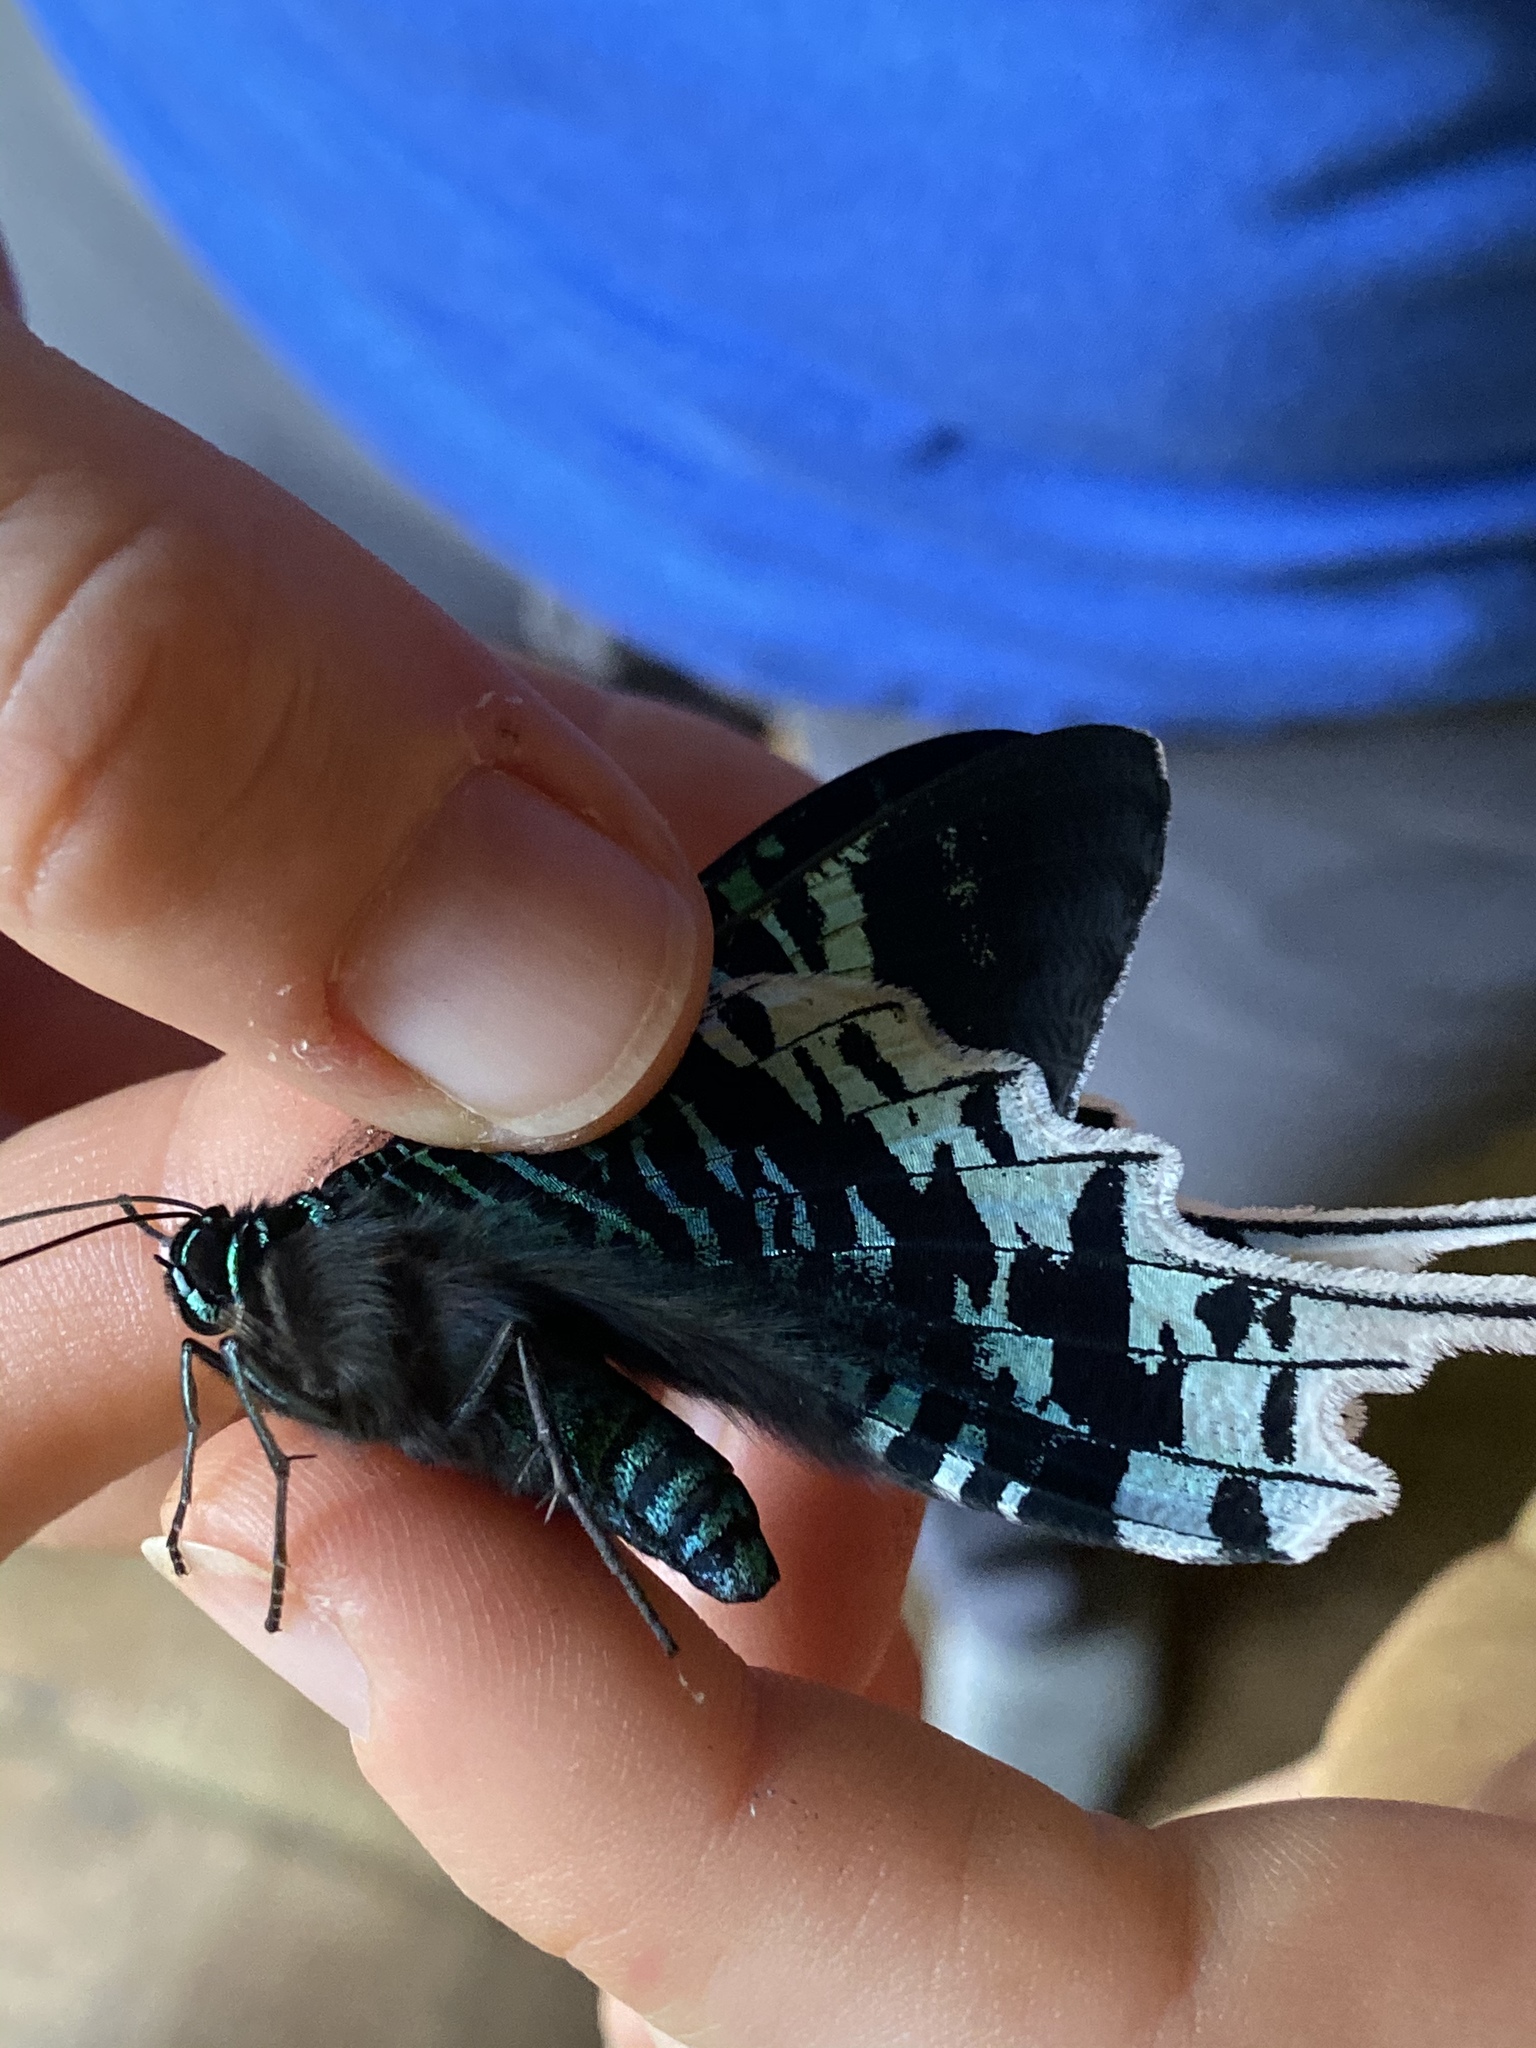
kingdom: Animalia
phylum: Arthropoda
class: Insecta
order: Lepidoptera
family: Uraniidae
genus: Urania
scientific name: Urania leilus
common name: Peacock moth
